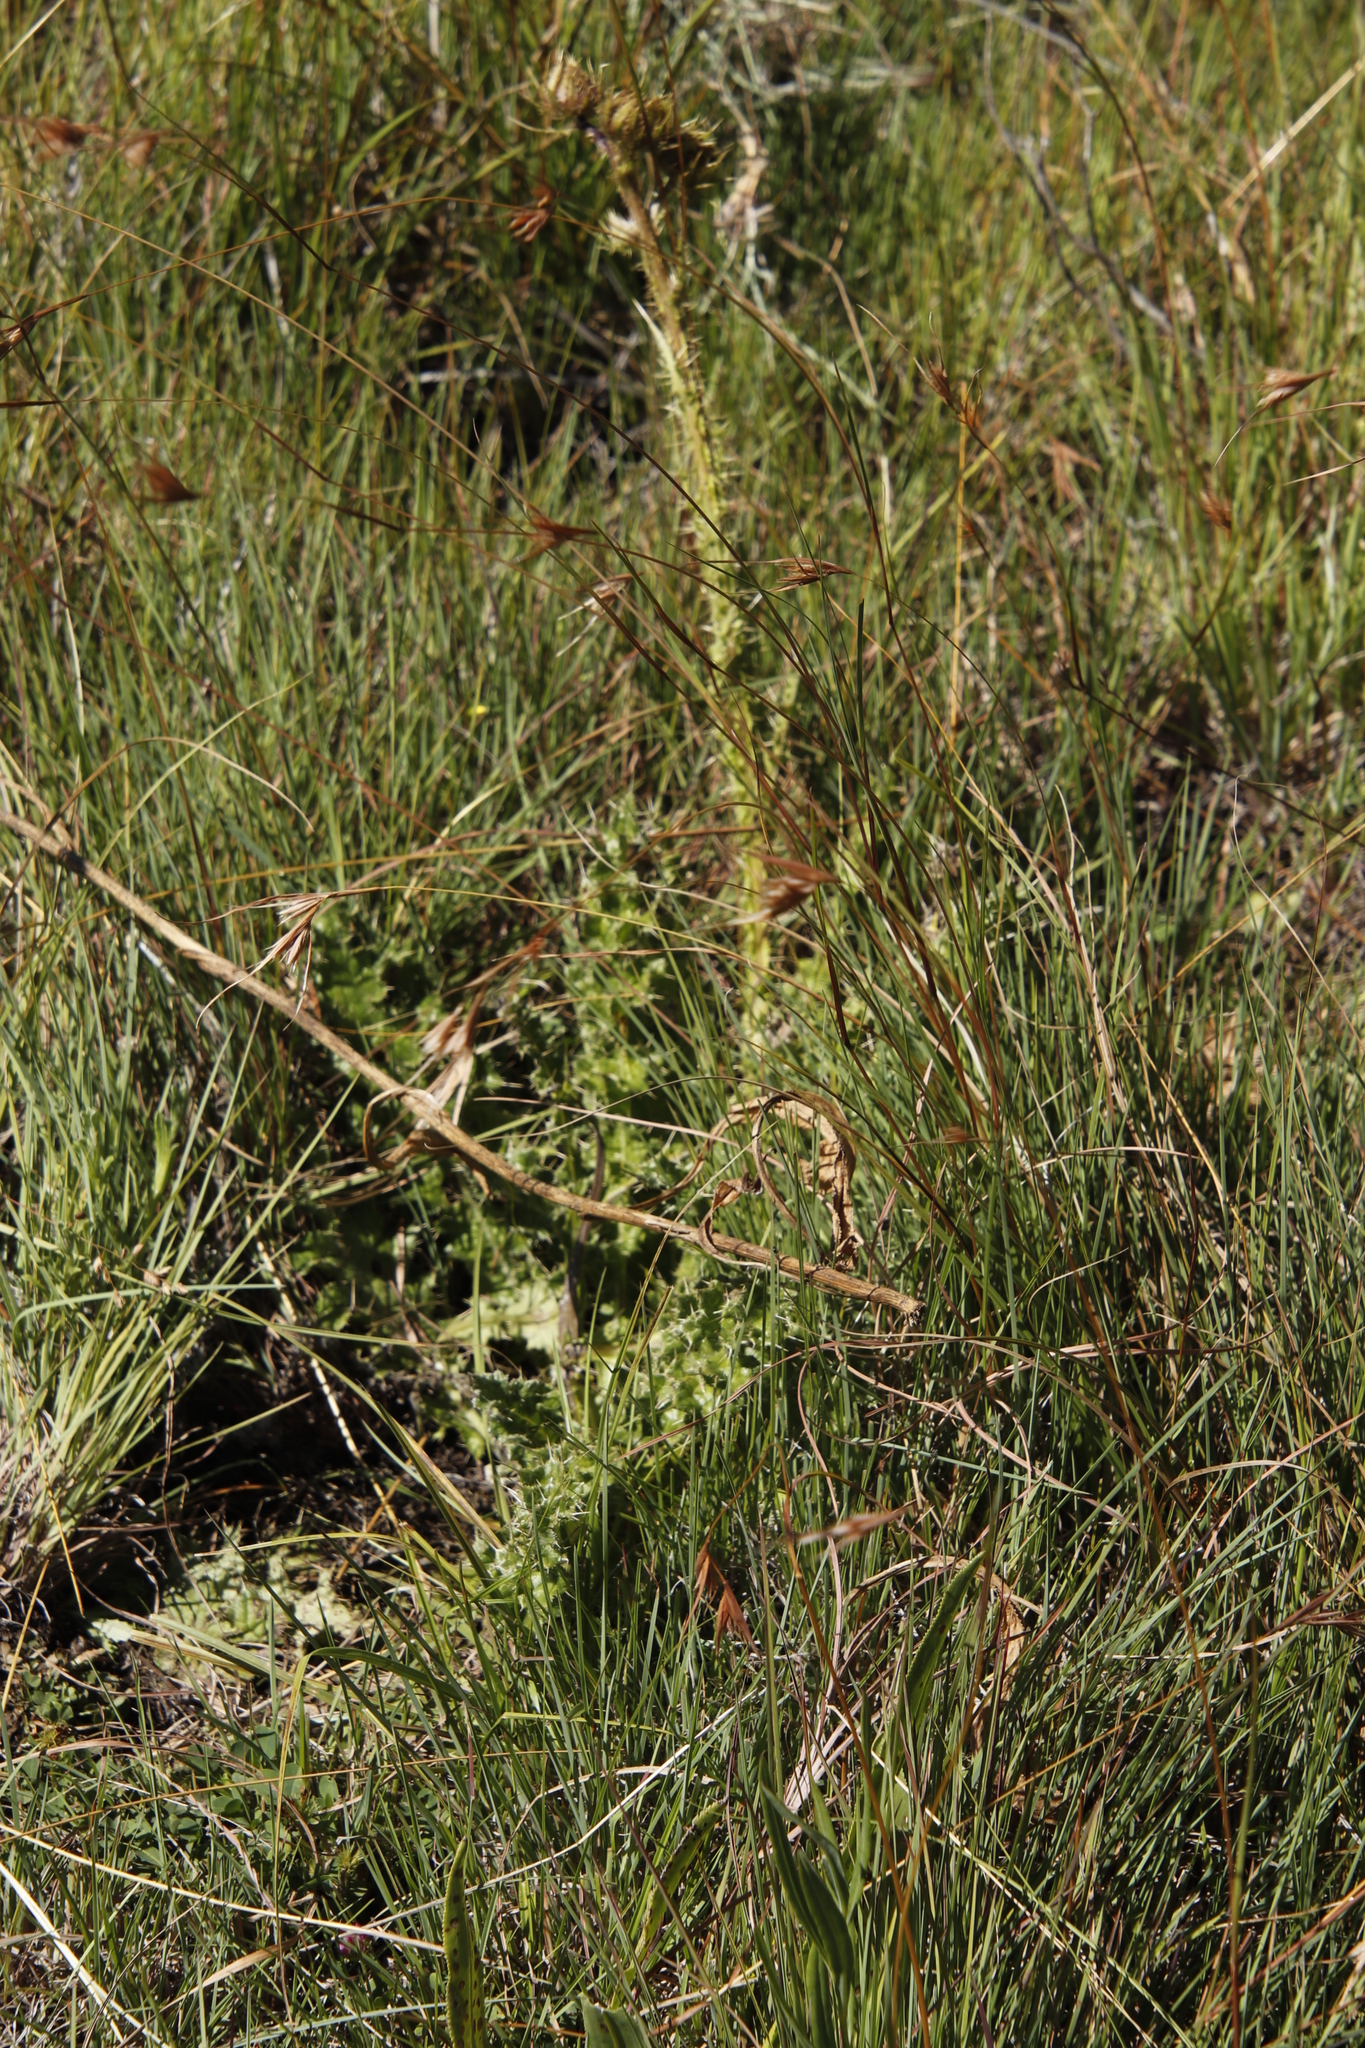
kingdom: Plantae
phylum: Tracheophyta
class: Magnoliopsida
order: Asterales
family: Asteraceae
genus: Berkheya
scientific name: Berkheya purpurea
